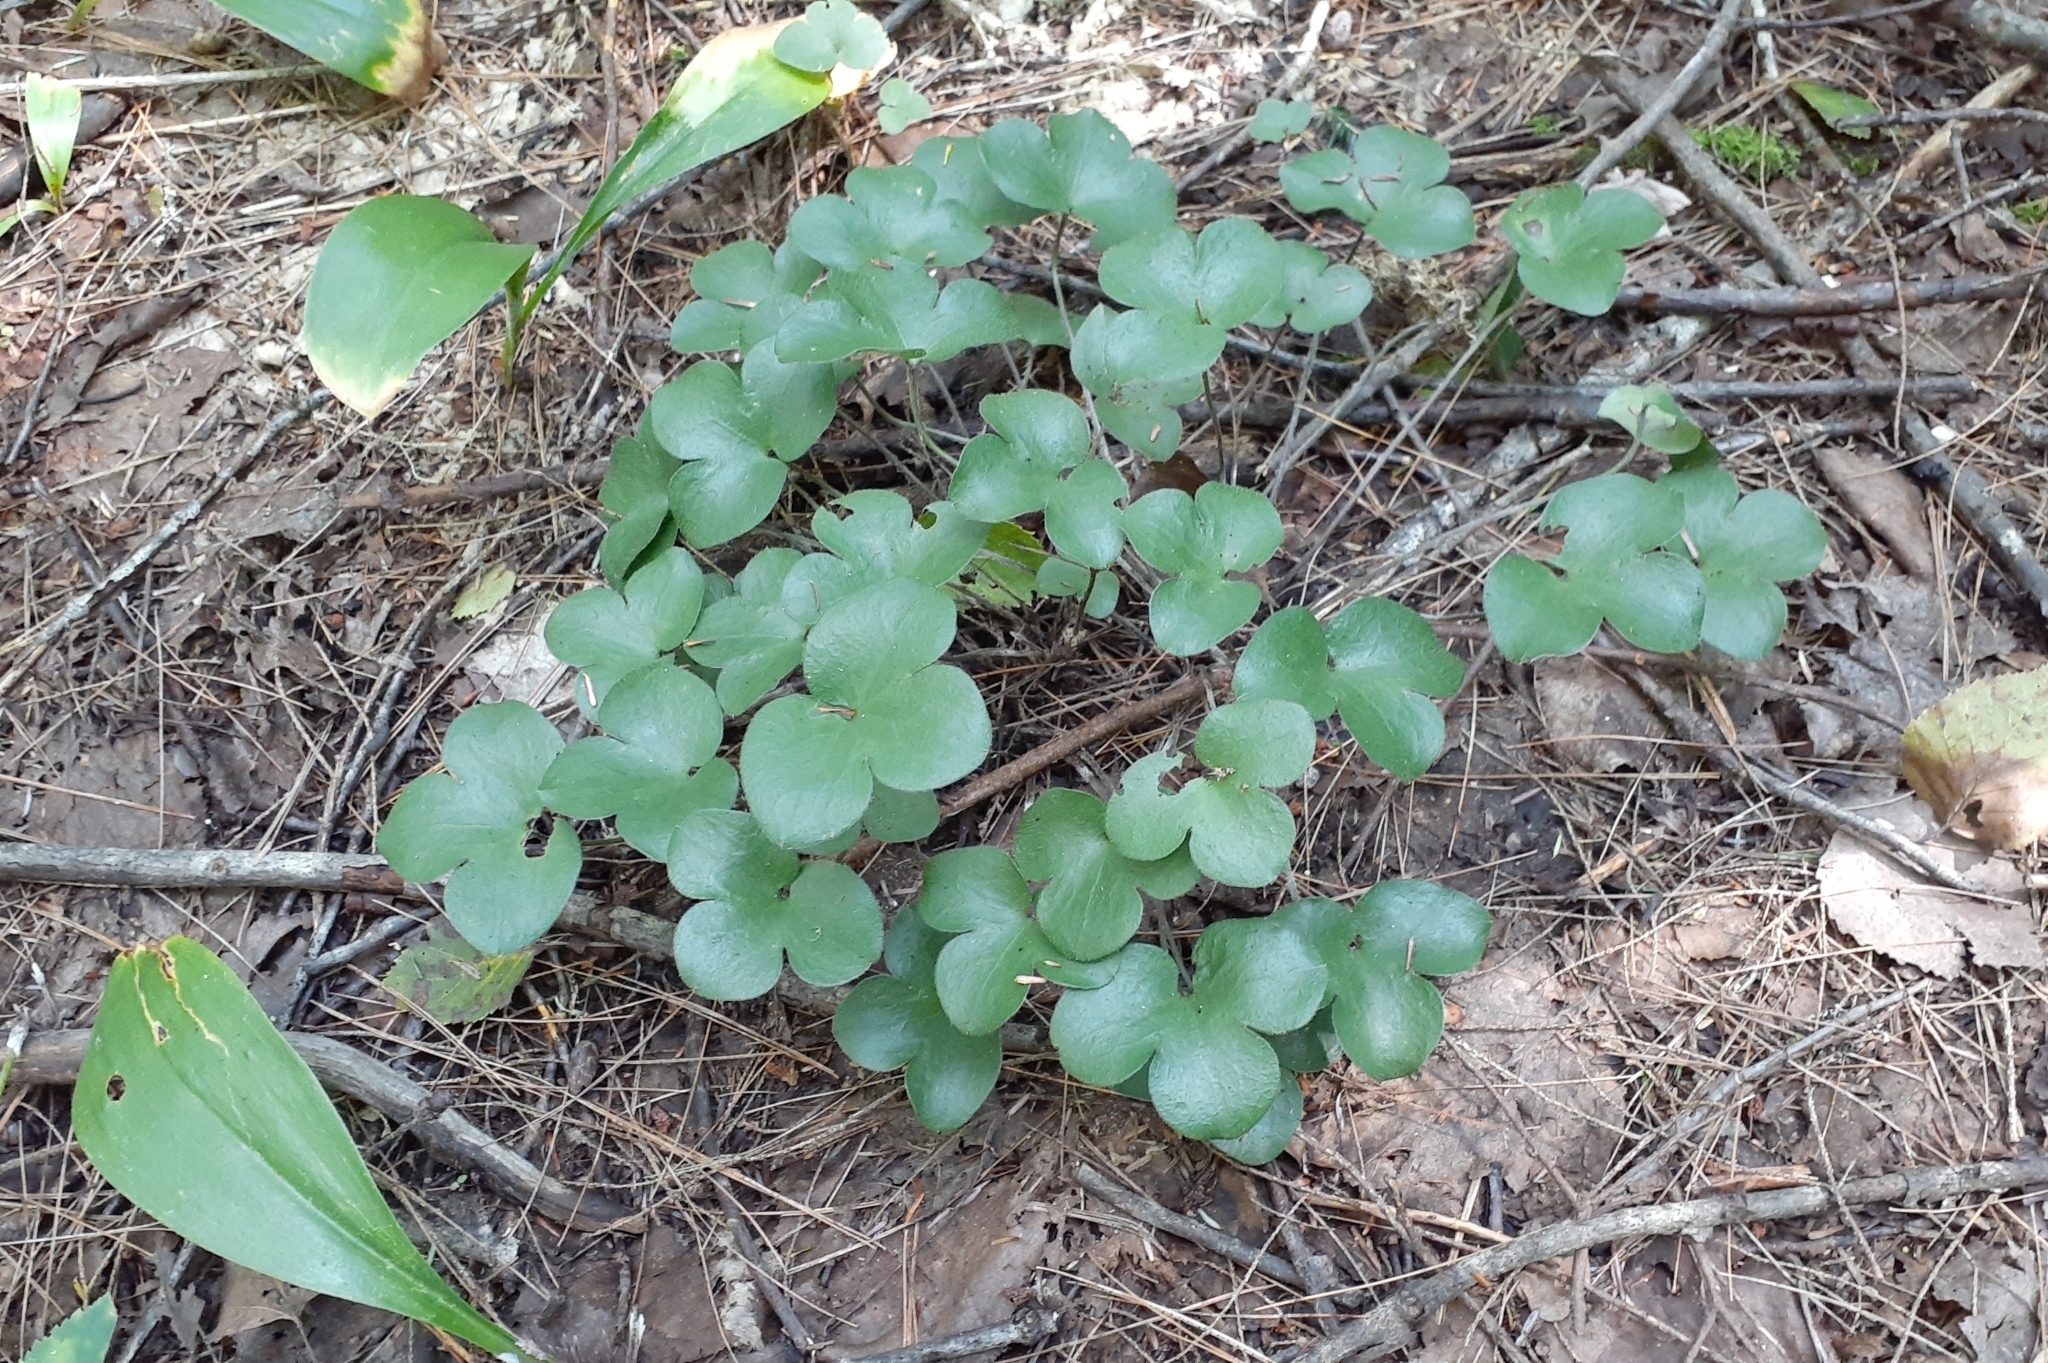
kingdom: Plantae
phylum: Tracheophyta
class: Magnoliopsida
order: Ranunculales
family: Ranunculaceae
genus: Hepatica
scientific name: Hepatica americana
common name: American hepatica
